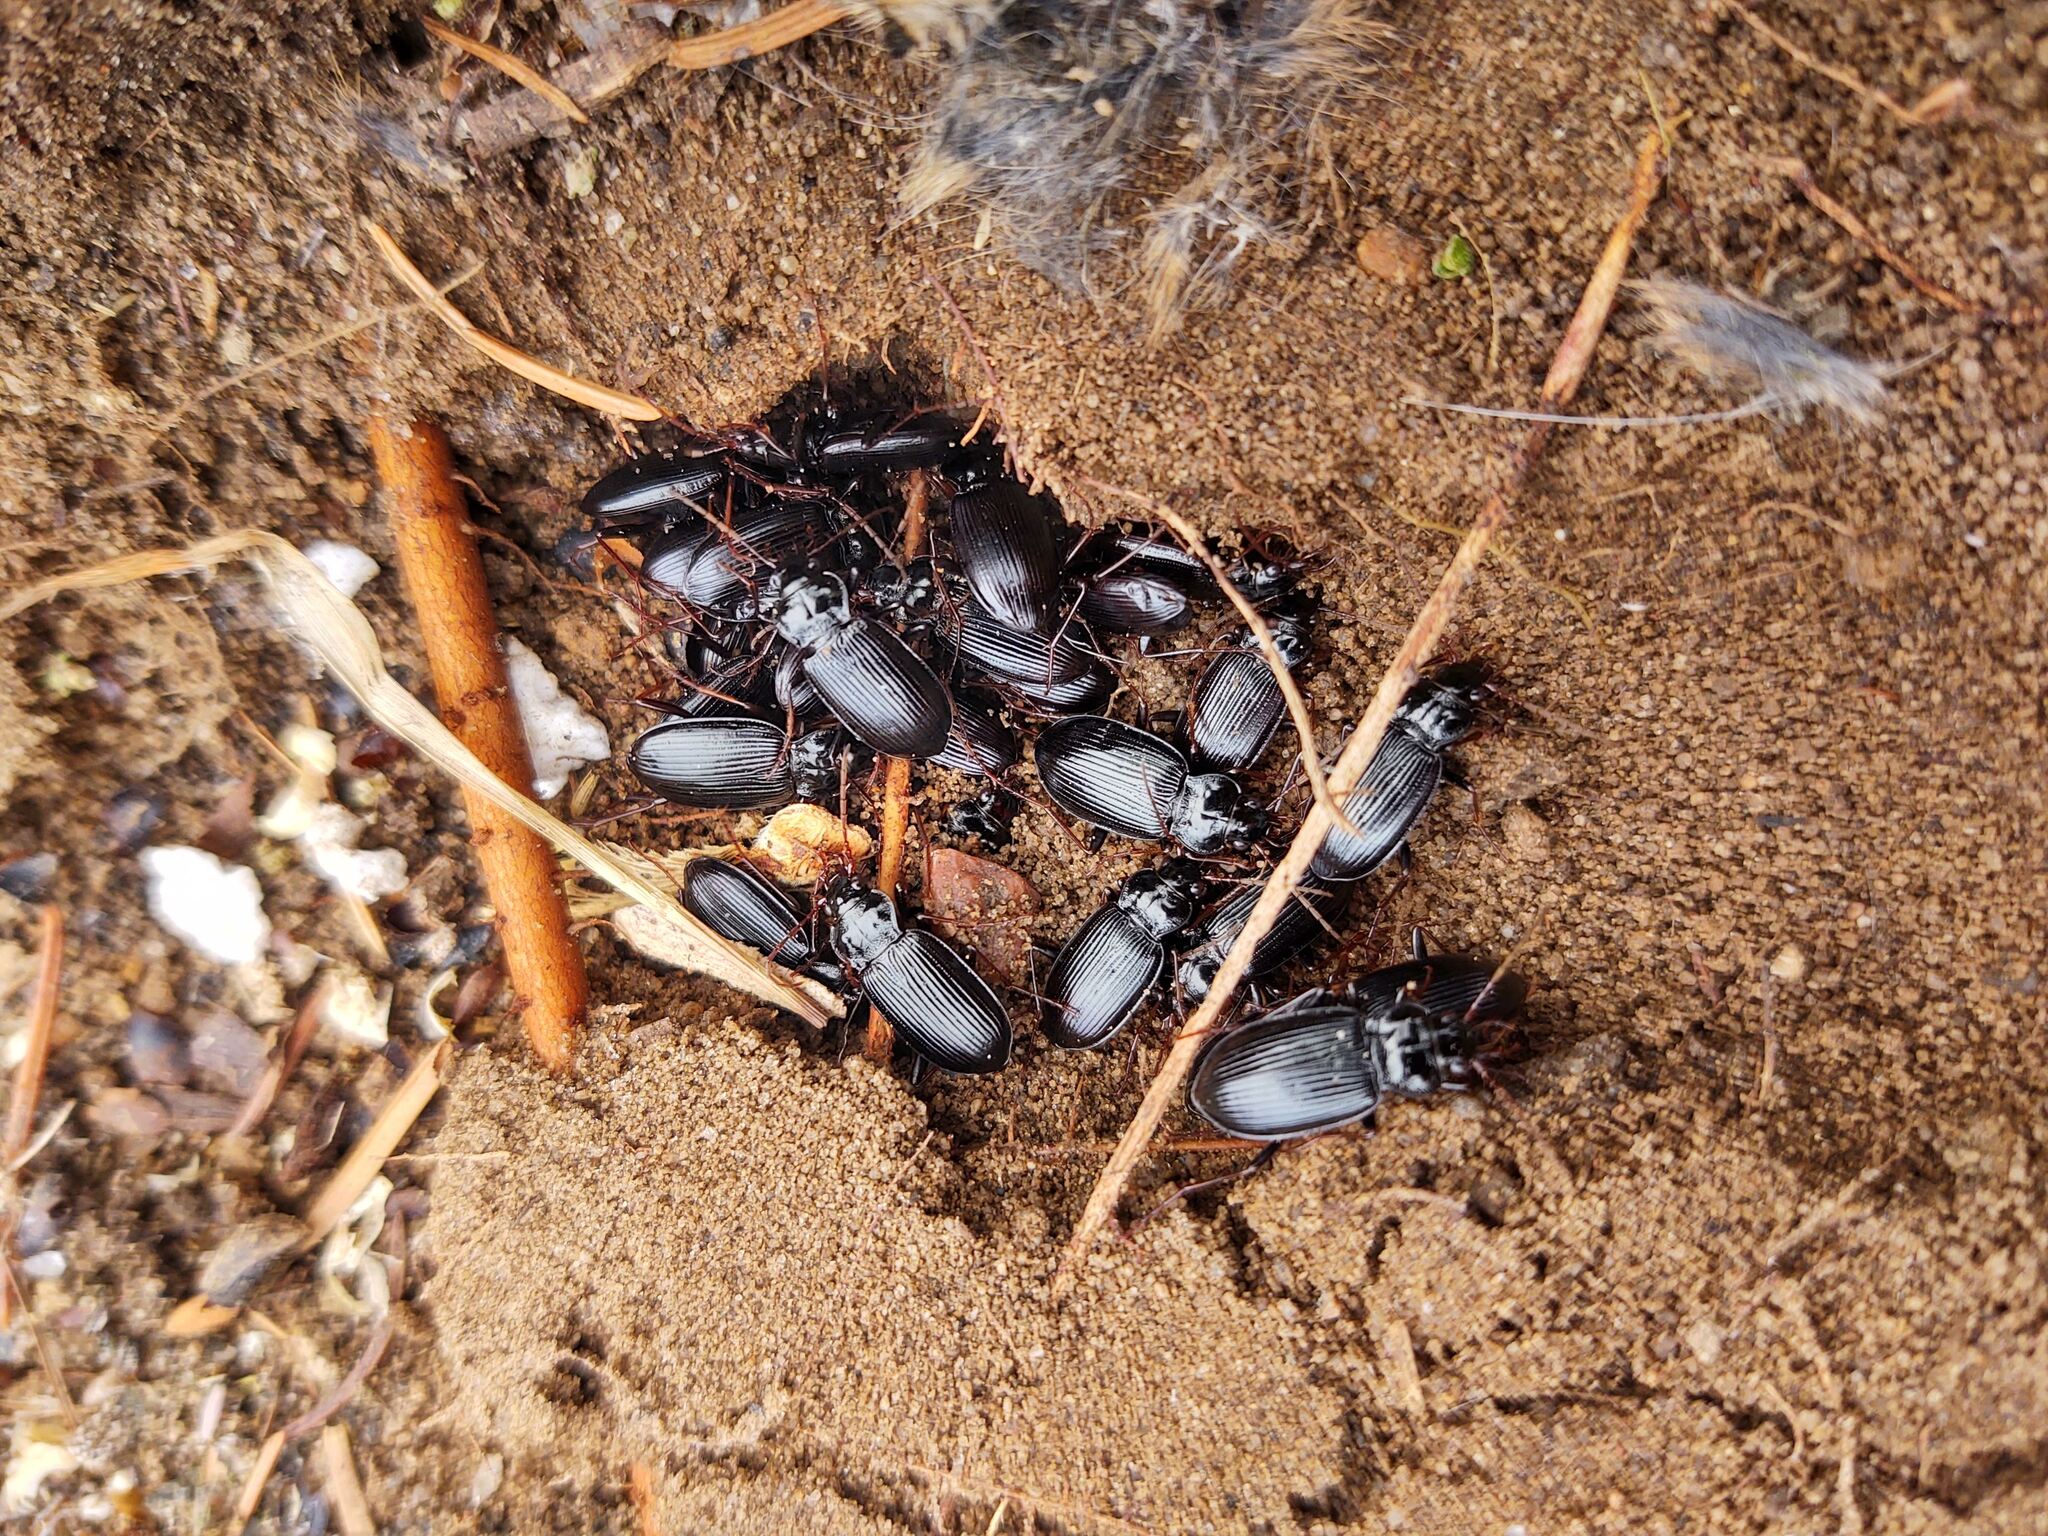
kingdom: Animalia
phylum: Arthropoda
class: Insecta
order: Coleoptera
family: Carabidae
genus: Nebria
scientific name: Nebria brevicollis
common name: Short-necked gazelle beetle
